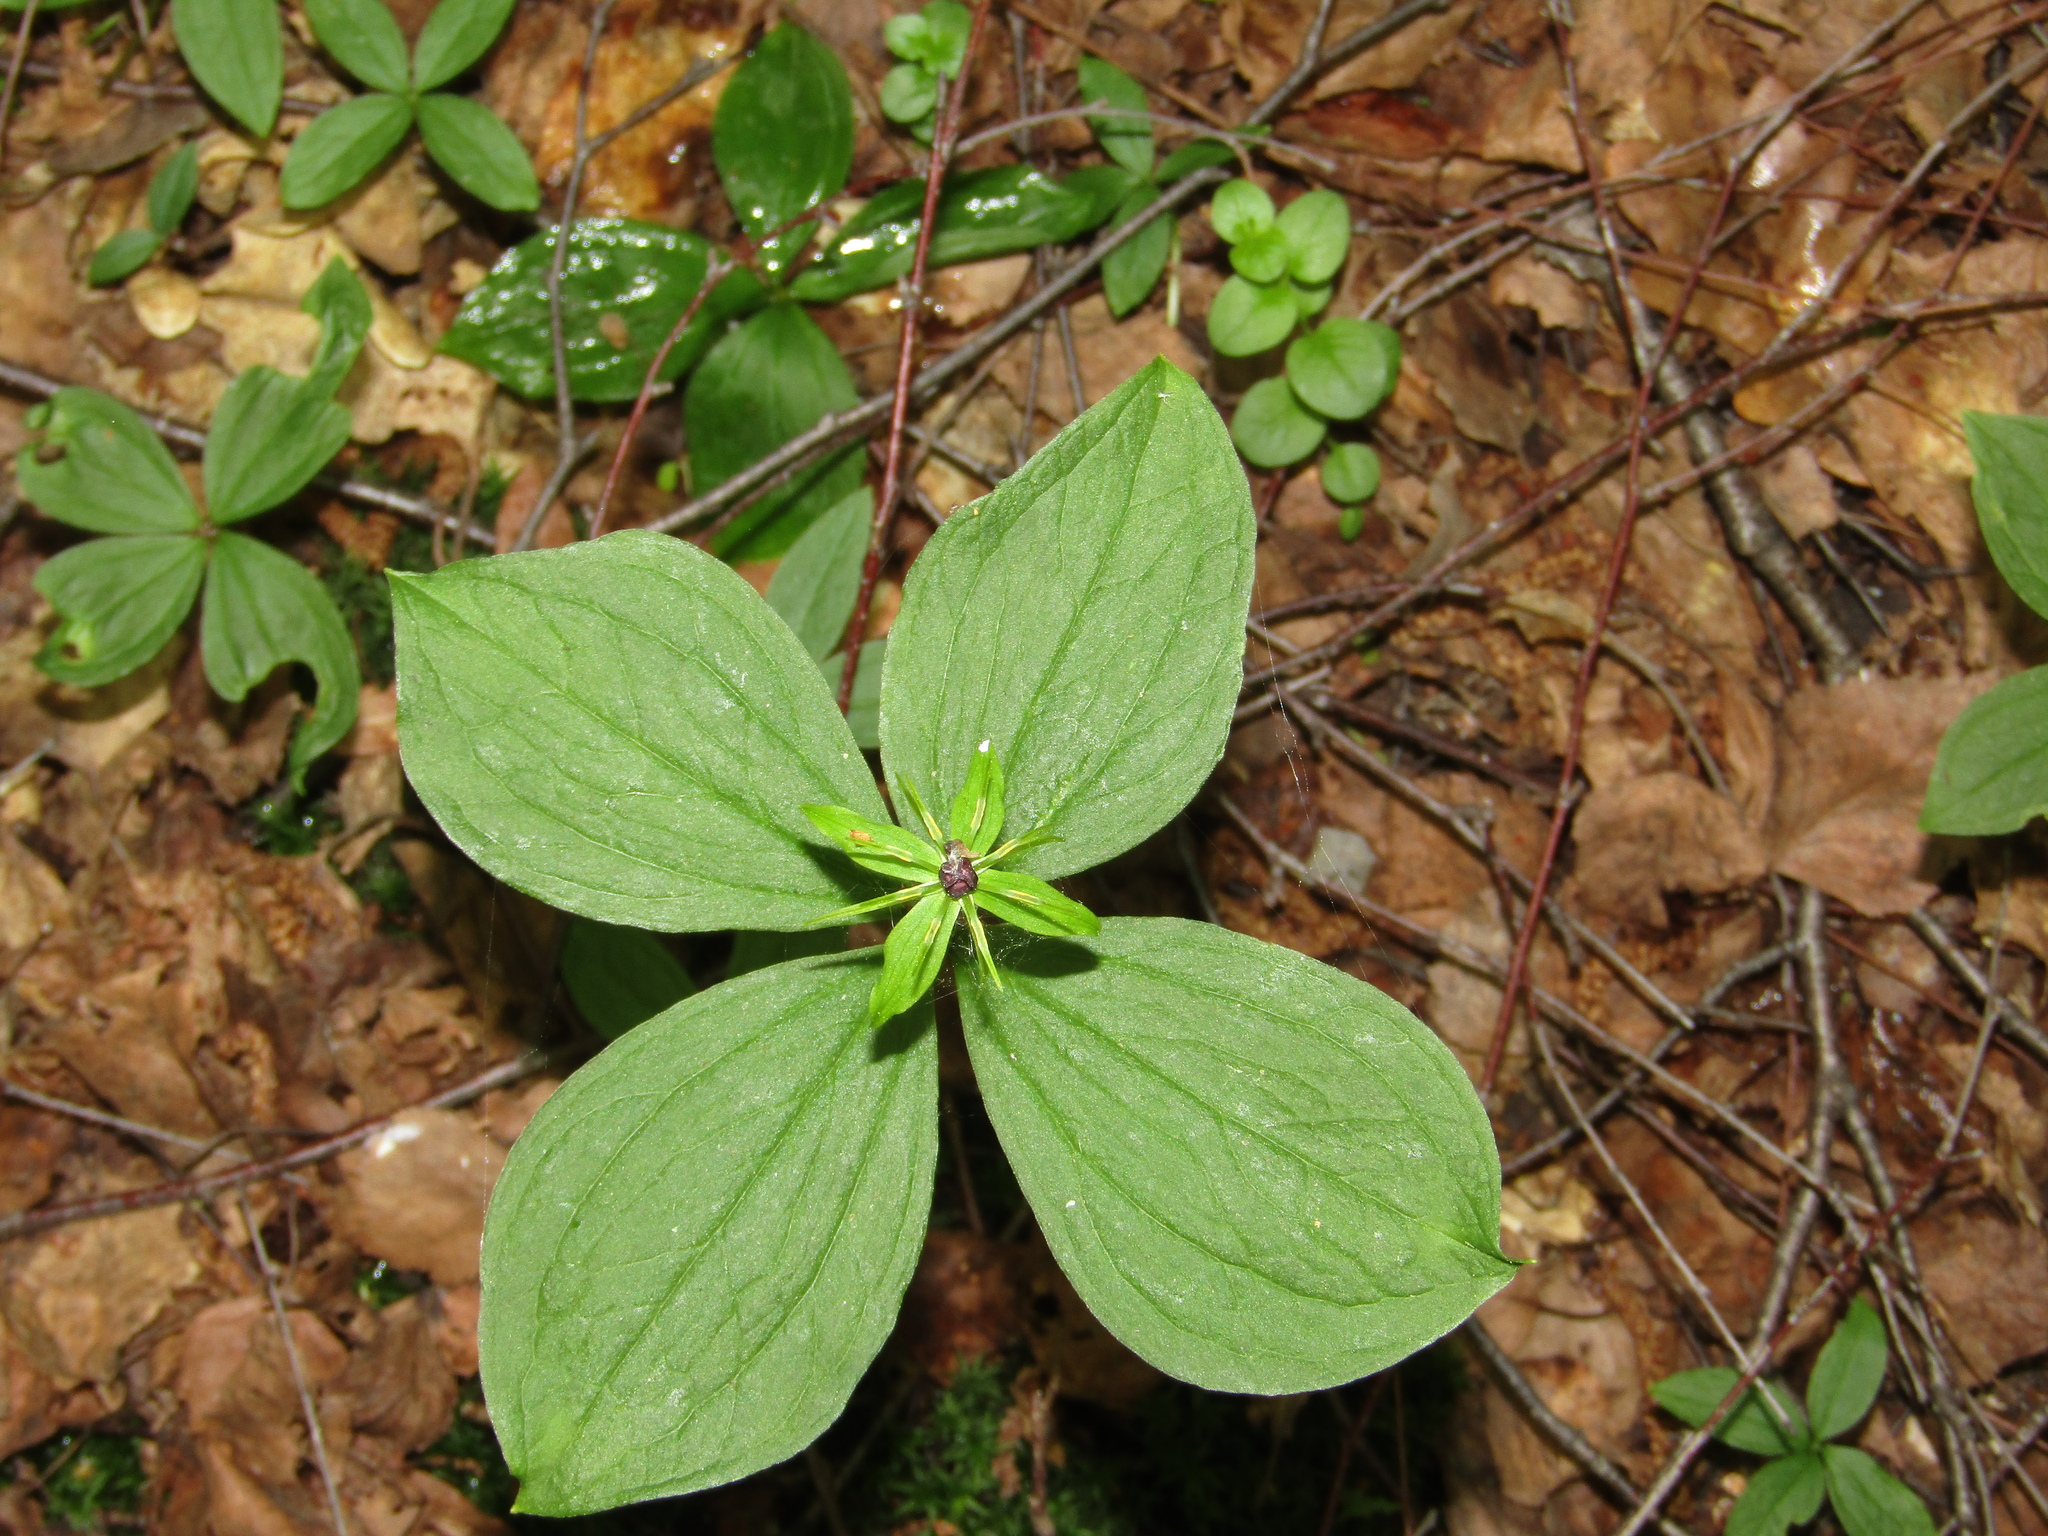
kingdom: Plantae
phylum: Tracheophyta
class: Liliopsida
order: Liliales
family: Melanthiaceae
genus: Paris
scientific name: Paris quadrifolia
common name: Herb-paris
